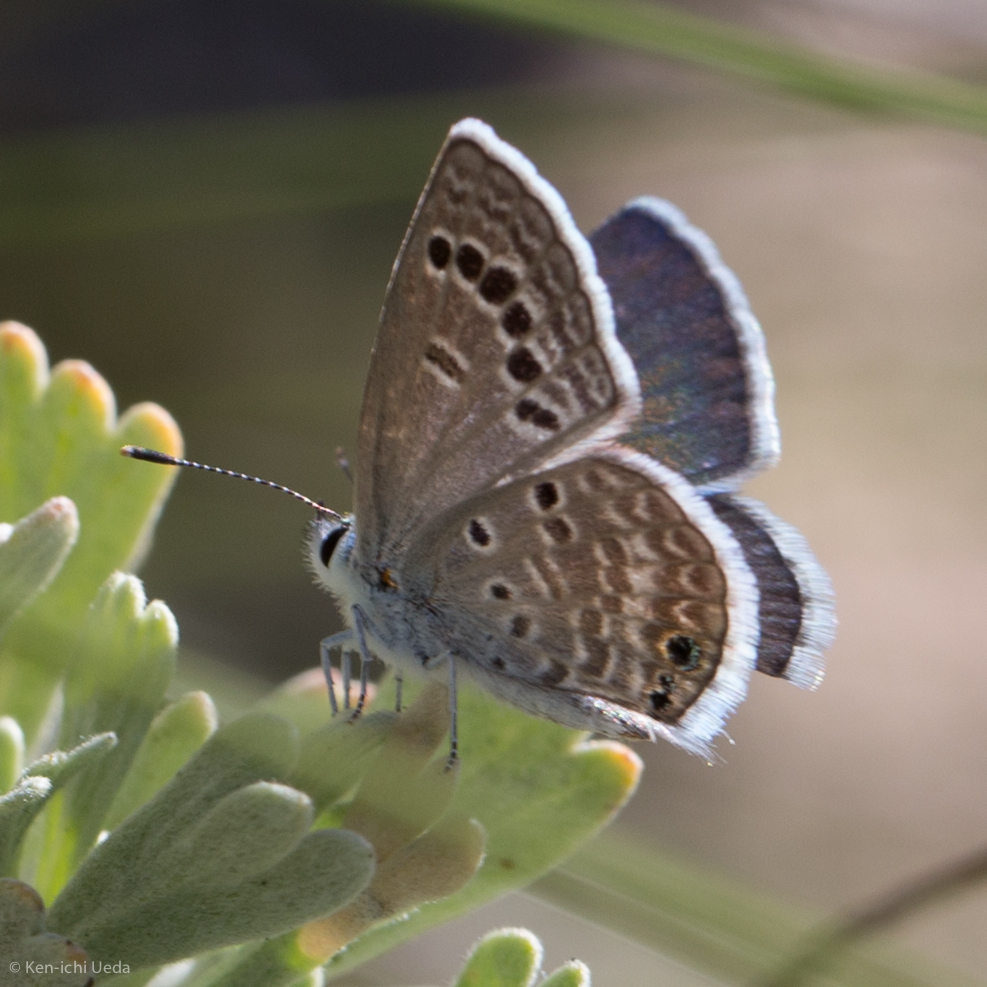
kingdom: Animalia
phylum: Arthropoda
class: Insecta
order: Lepidoptera
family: Lycaenidae
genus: Echinargus
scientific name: Echinargus isola
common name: Reakirt's blue
